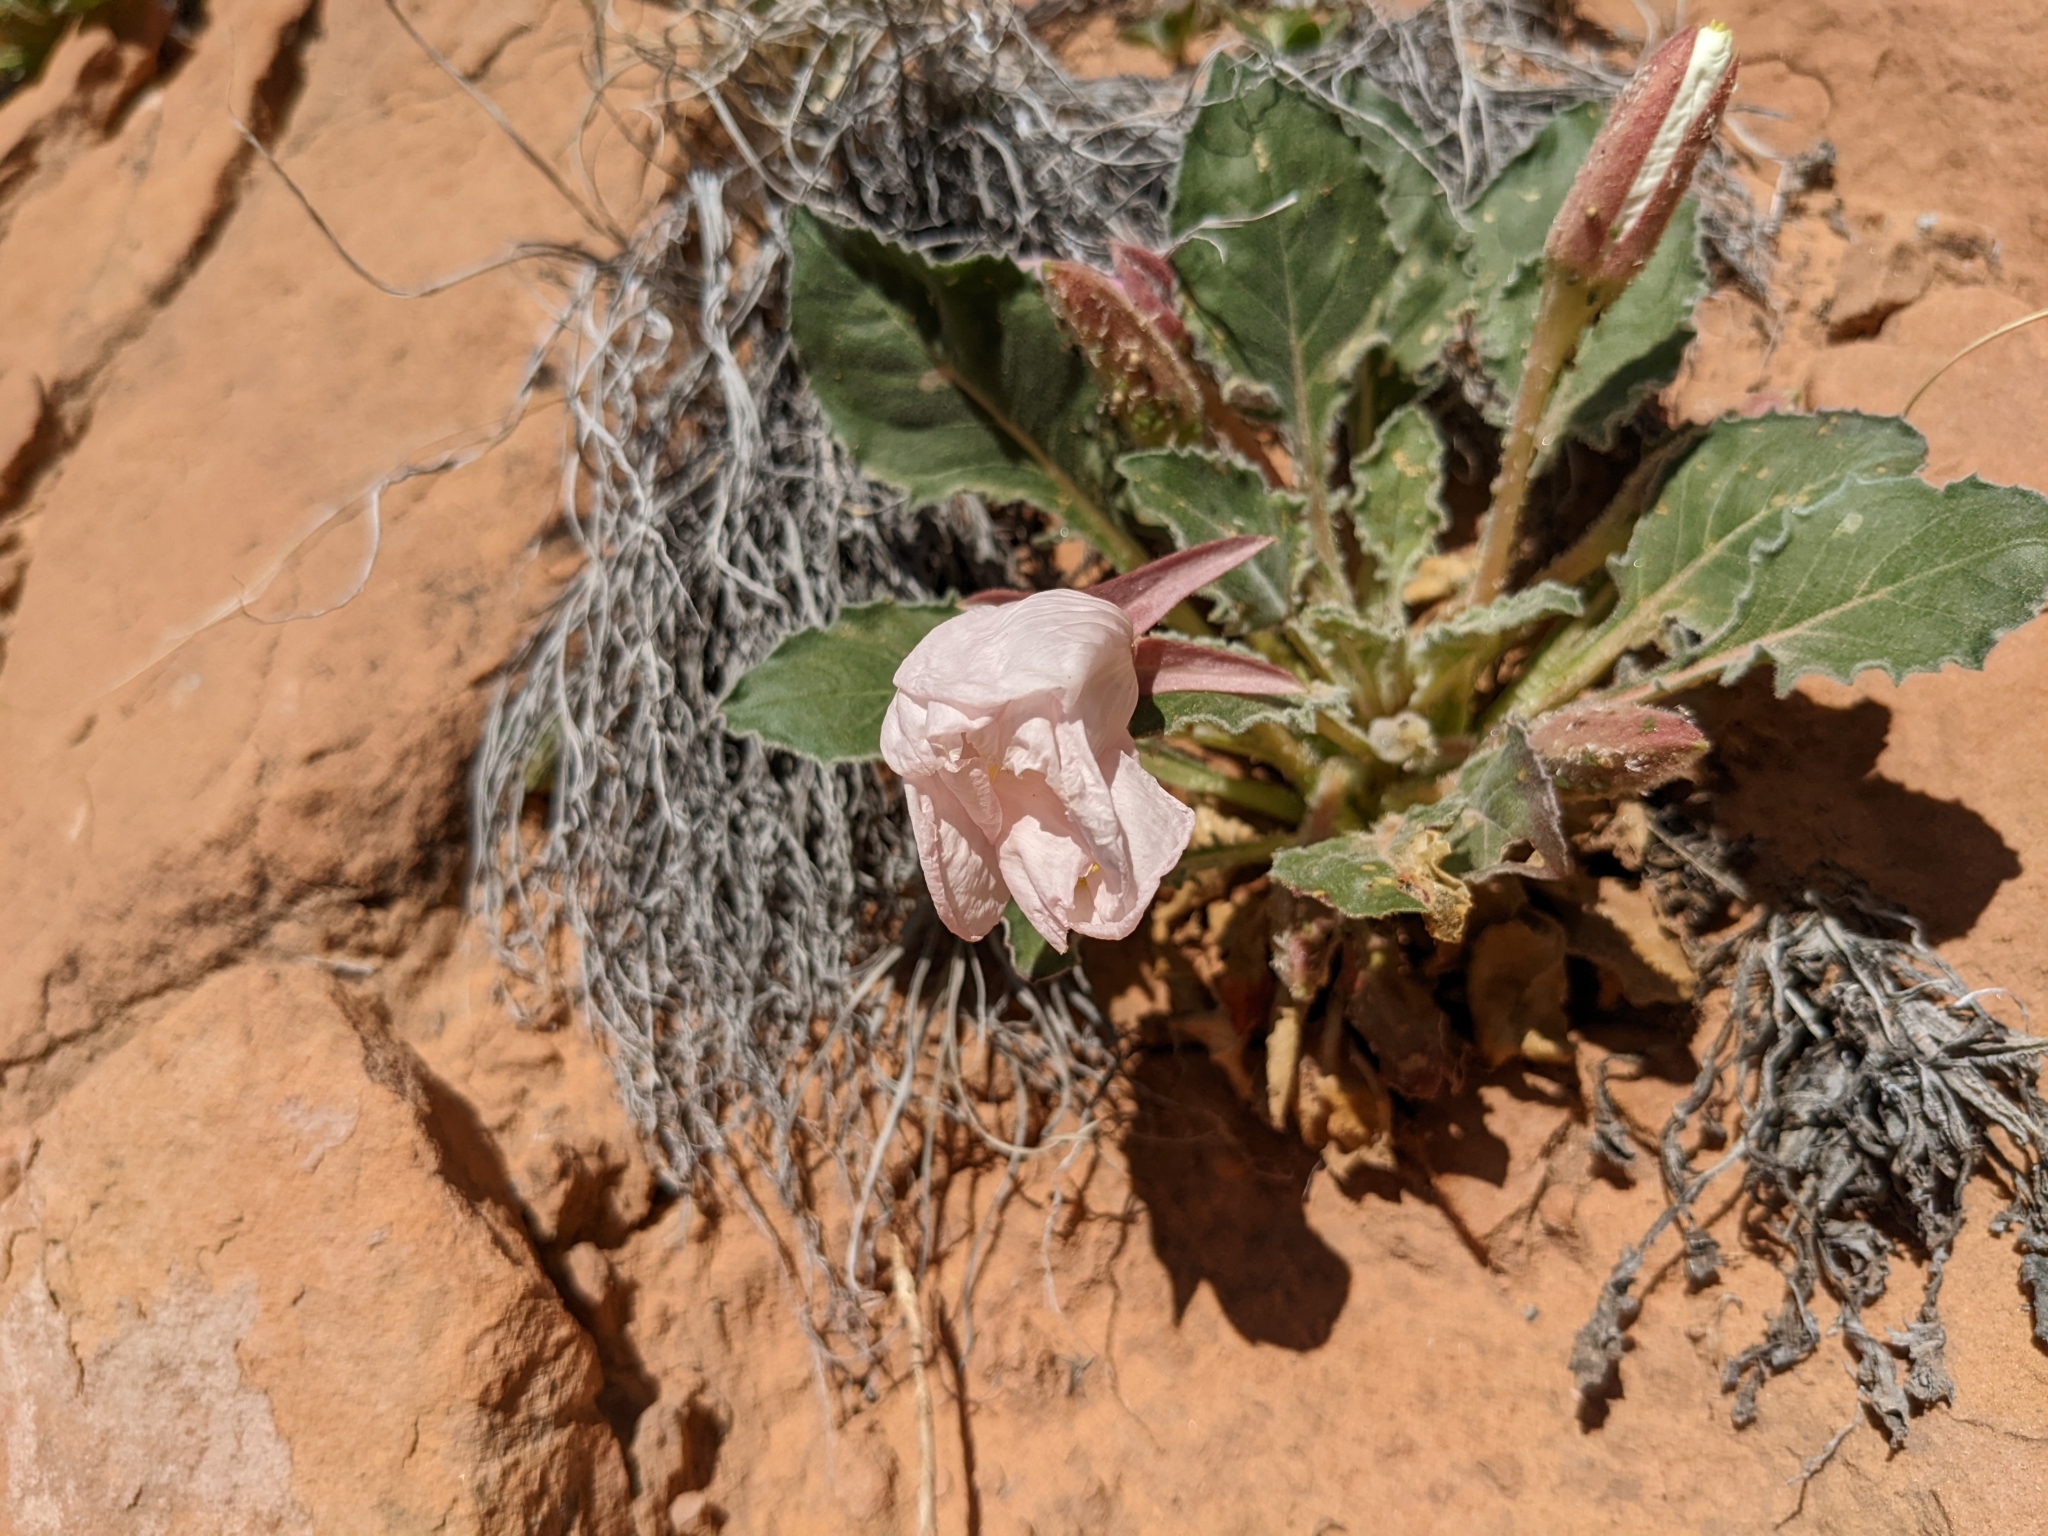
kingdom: Plantae
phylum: Tracheophyta
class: Magnoliopsida
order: Myrtales
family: Onagraceae
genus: Oenothera
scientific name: Oenothera cespitosa
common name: Tufted evening-primrose
